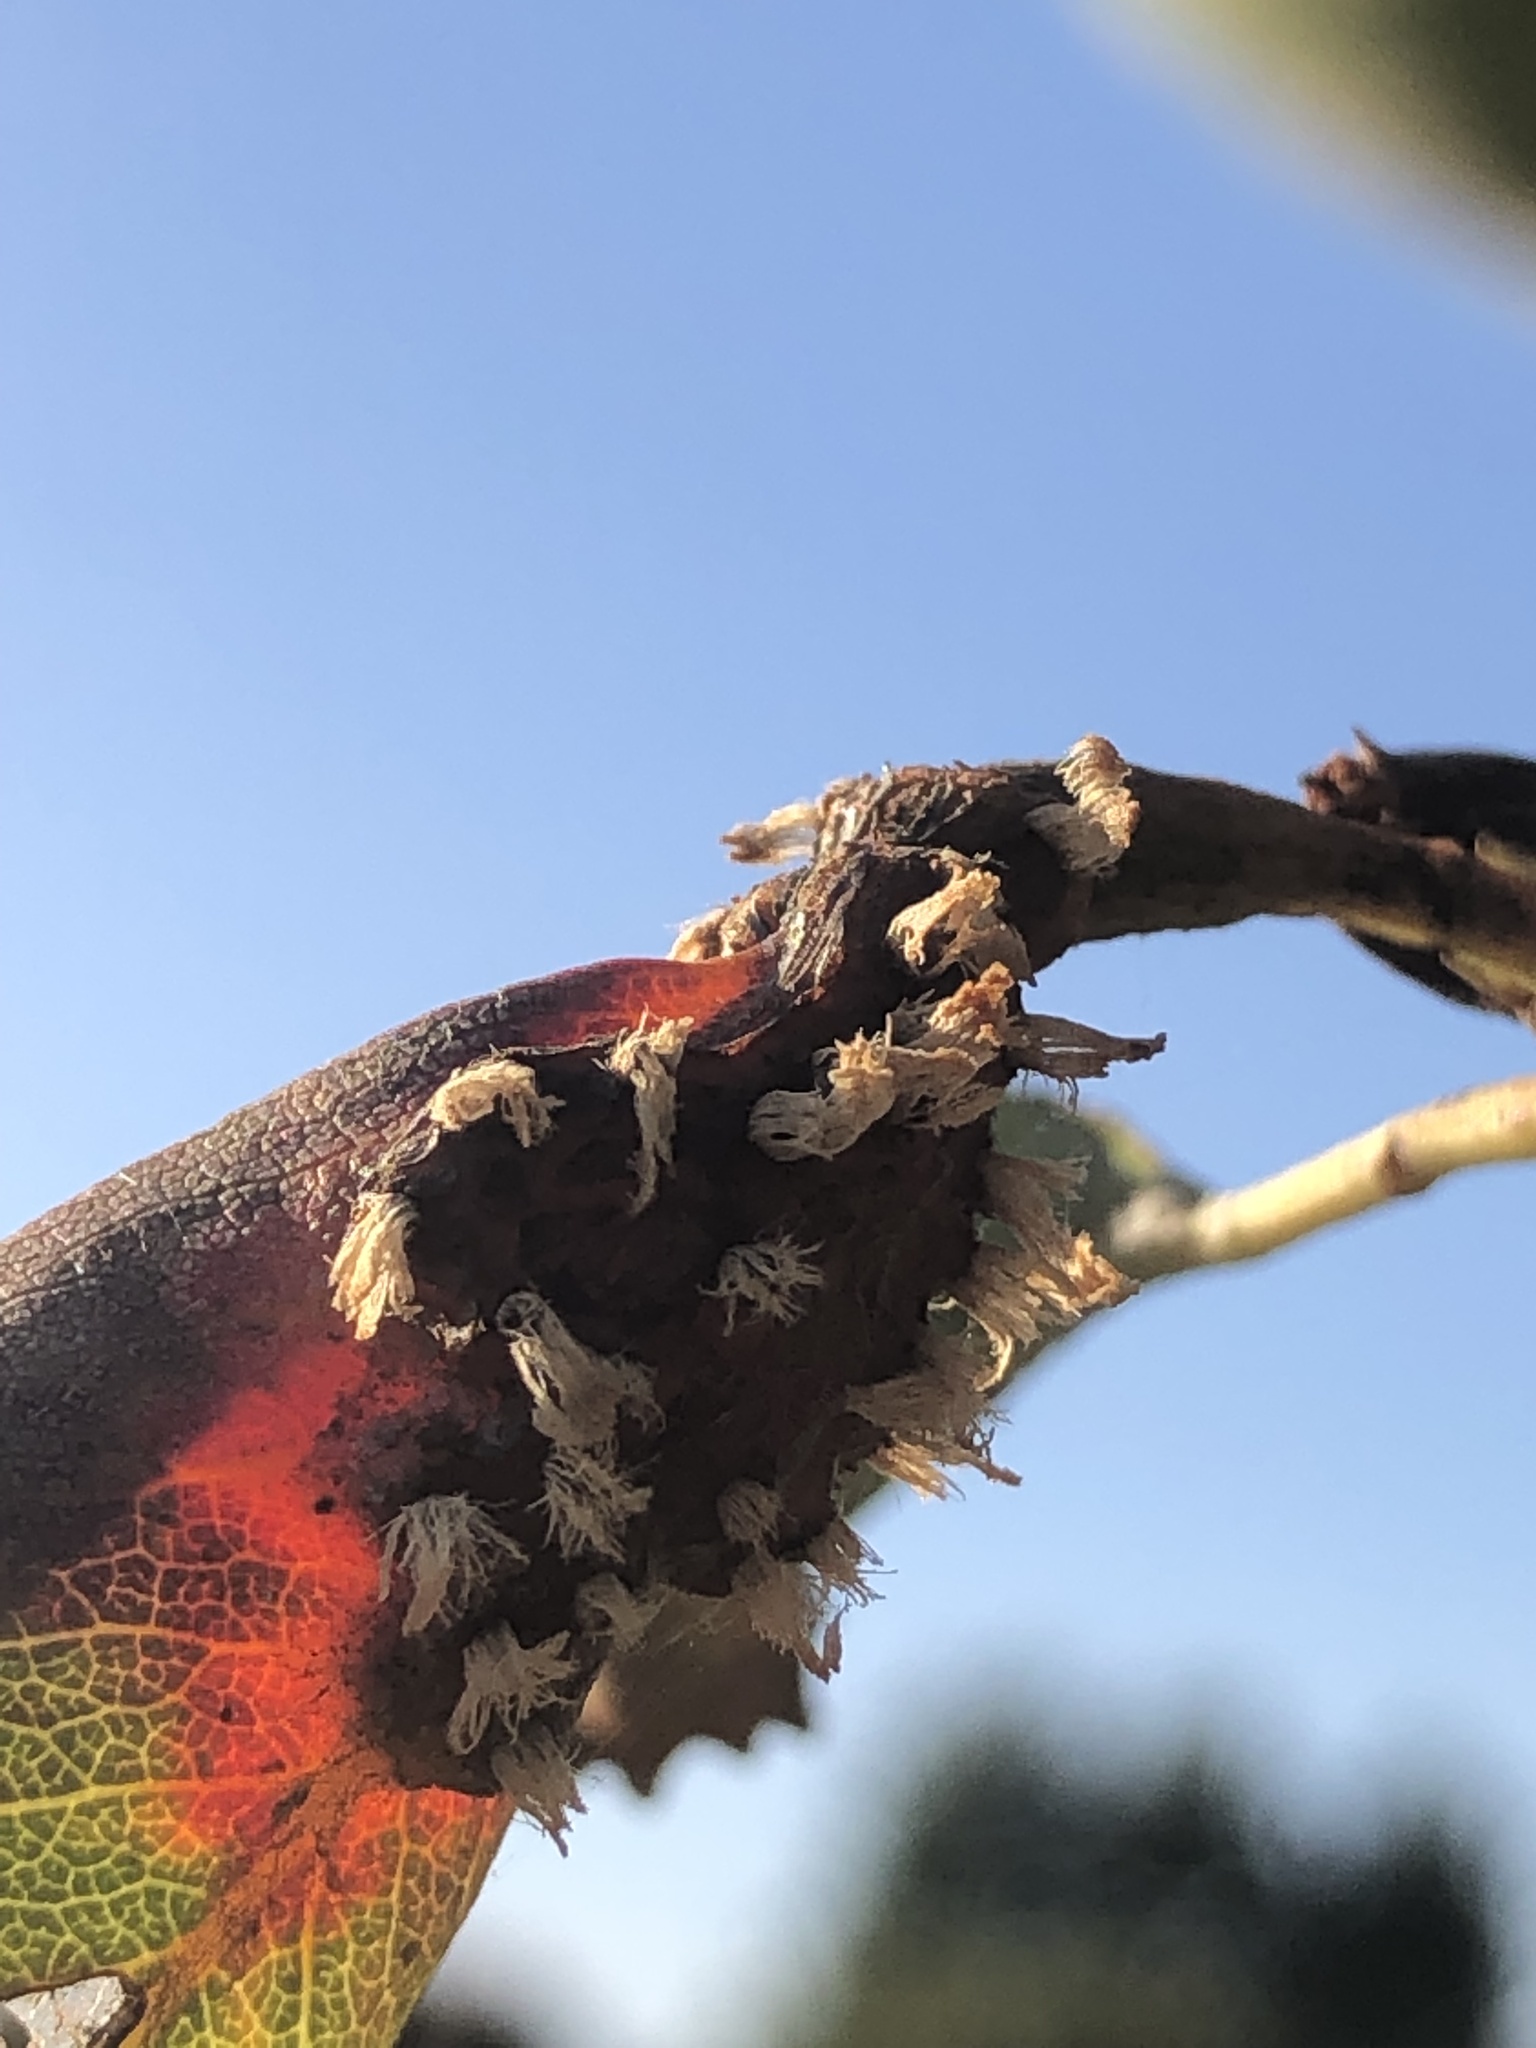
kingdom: Fungi
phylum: Basidiomycota
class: Pucciniomycetes
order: Pucciniales
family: Gymnosporangiaceae
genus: Gymnosporangium
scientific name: Gymnosporangium sabinae
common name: Pear trellis rust fungus
